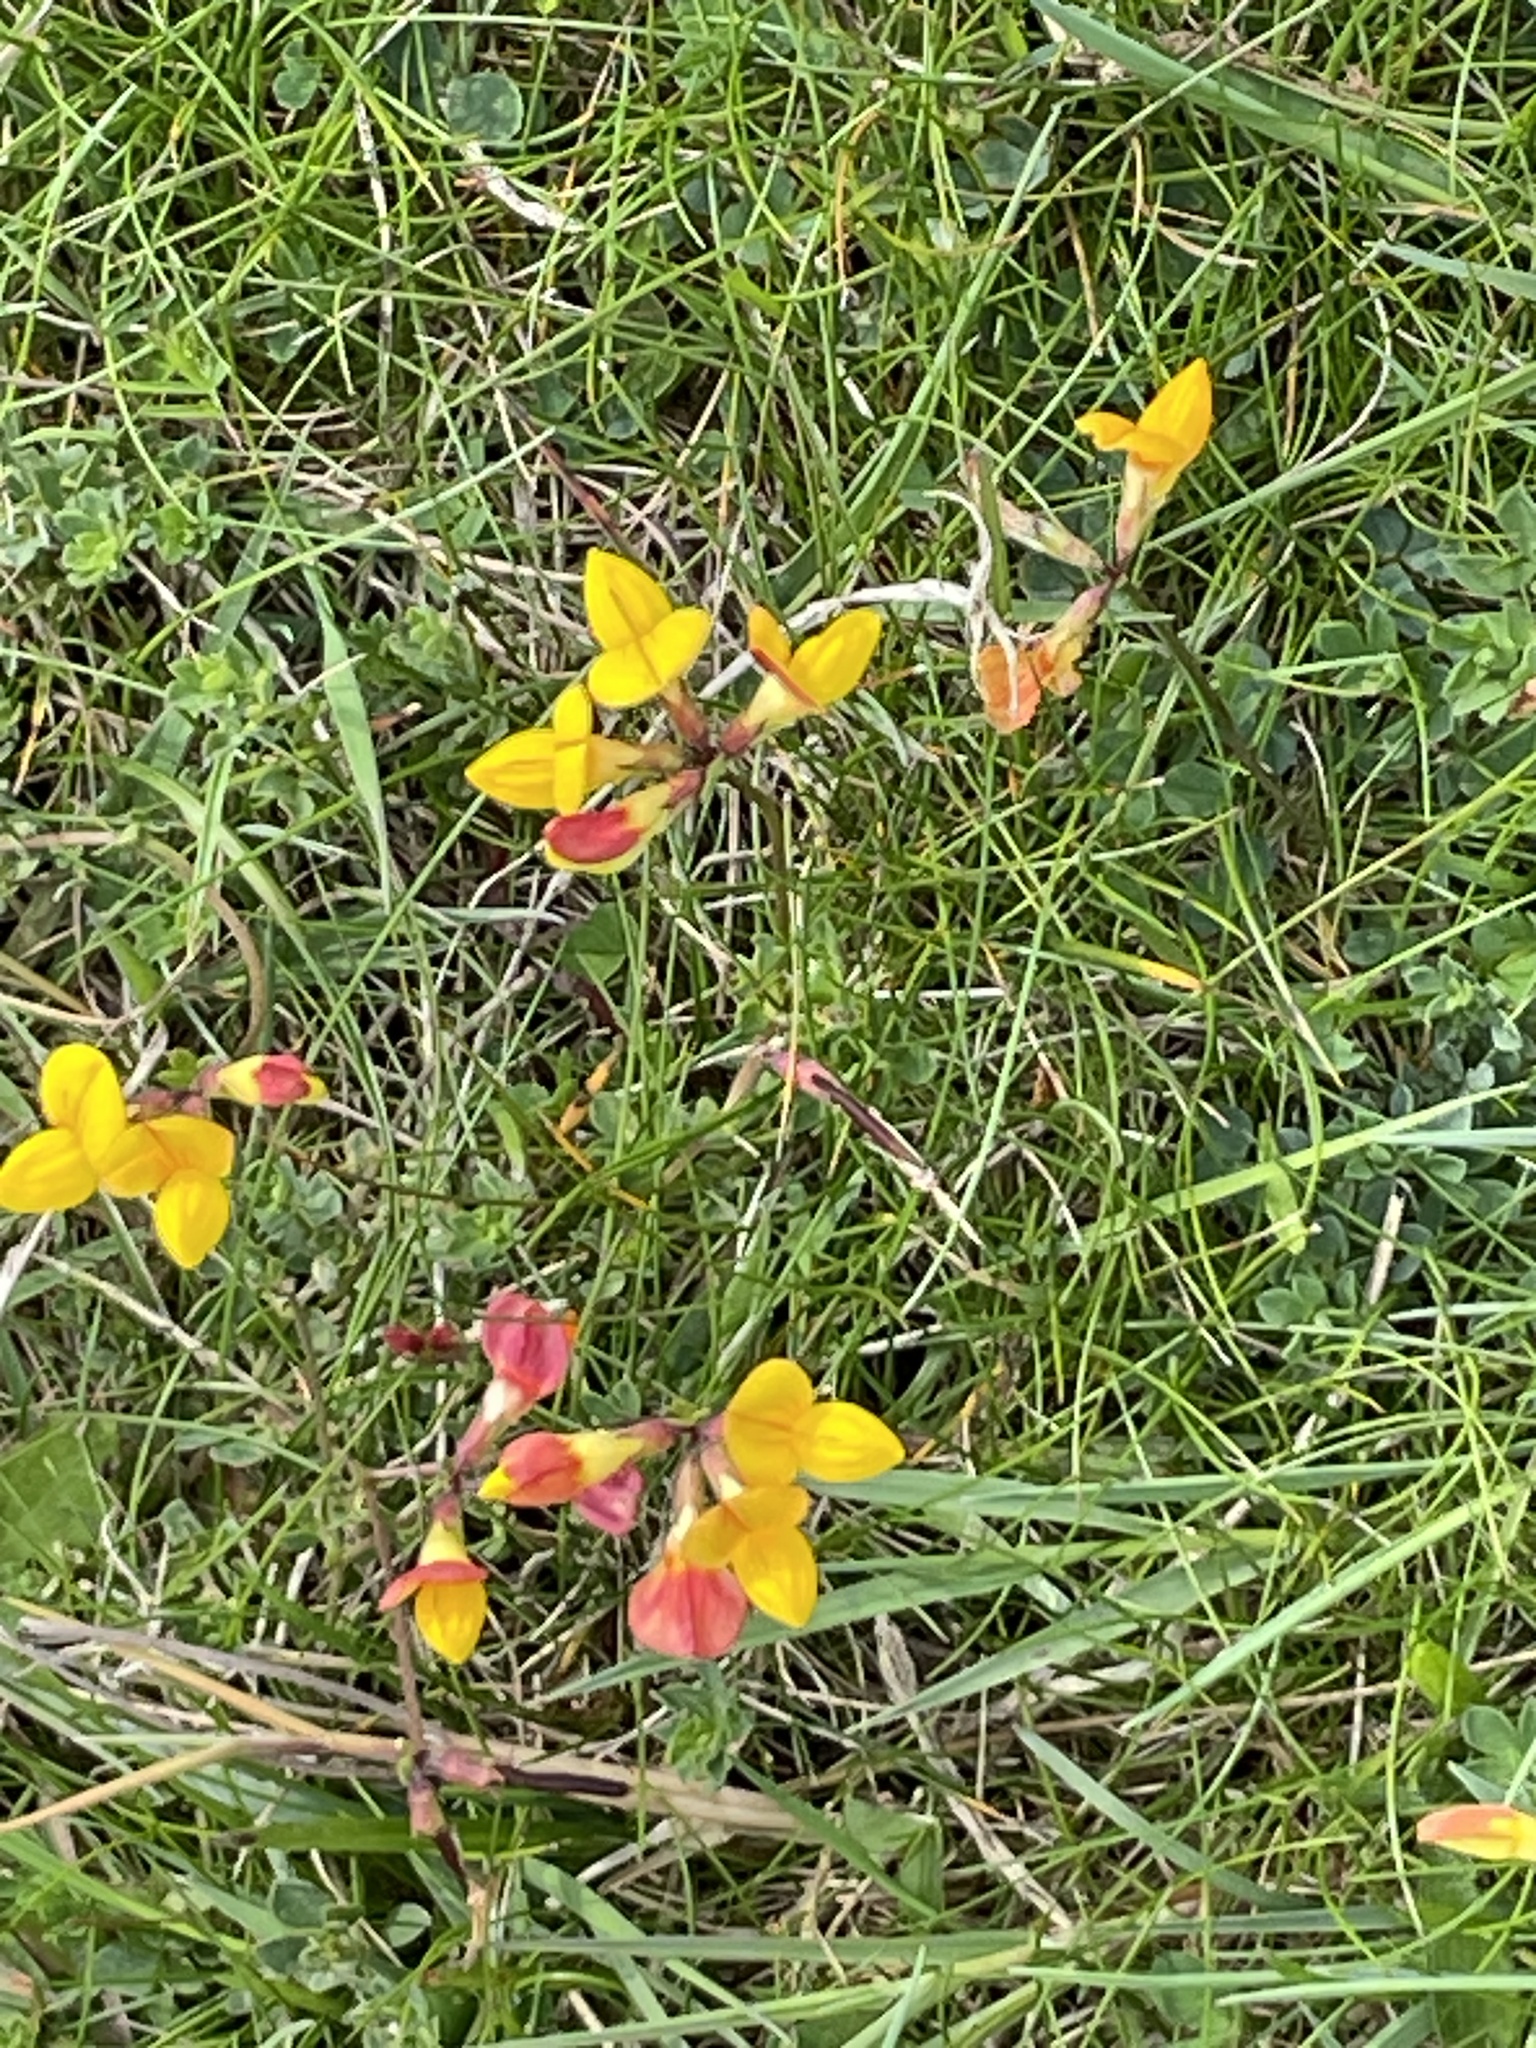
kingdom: Plantae
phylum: Tracheophyta
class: Magnoliopsida
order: Fabales
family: Fabaceae
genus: Lotus
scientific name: Lotus corniculatus
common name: Common bird's-foot-trefoil
